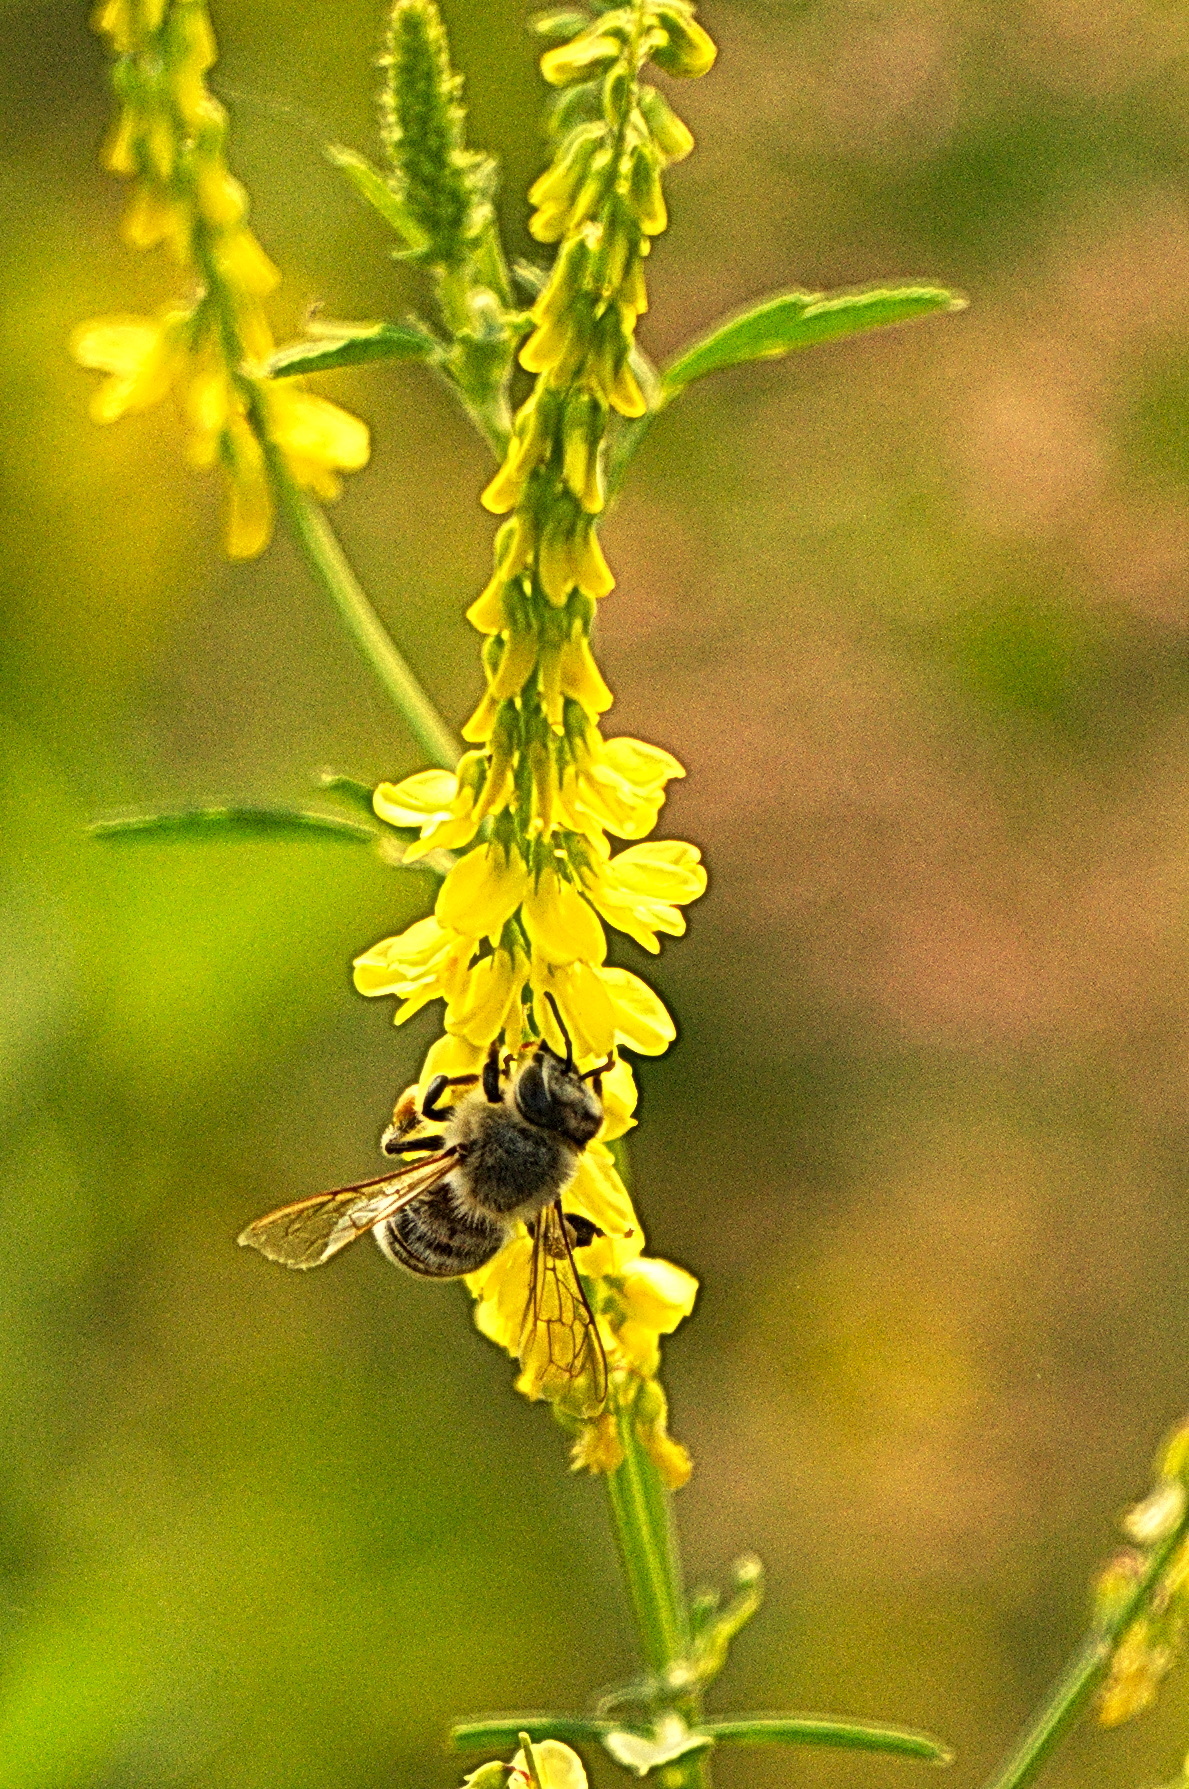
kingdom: Animalia
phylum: Arthropoda
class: Insecta
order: Hymenoptera
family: Apidae
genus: Apis
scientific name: Apis mellifera
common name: Honey bee
